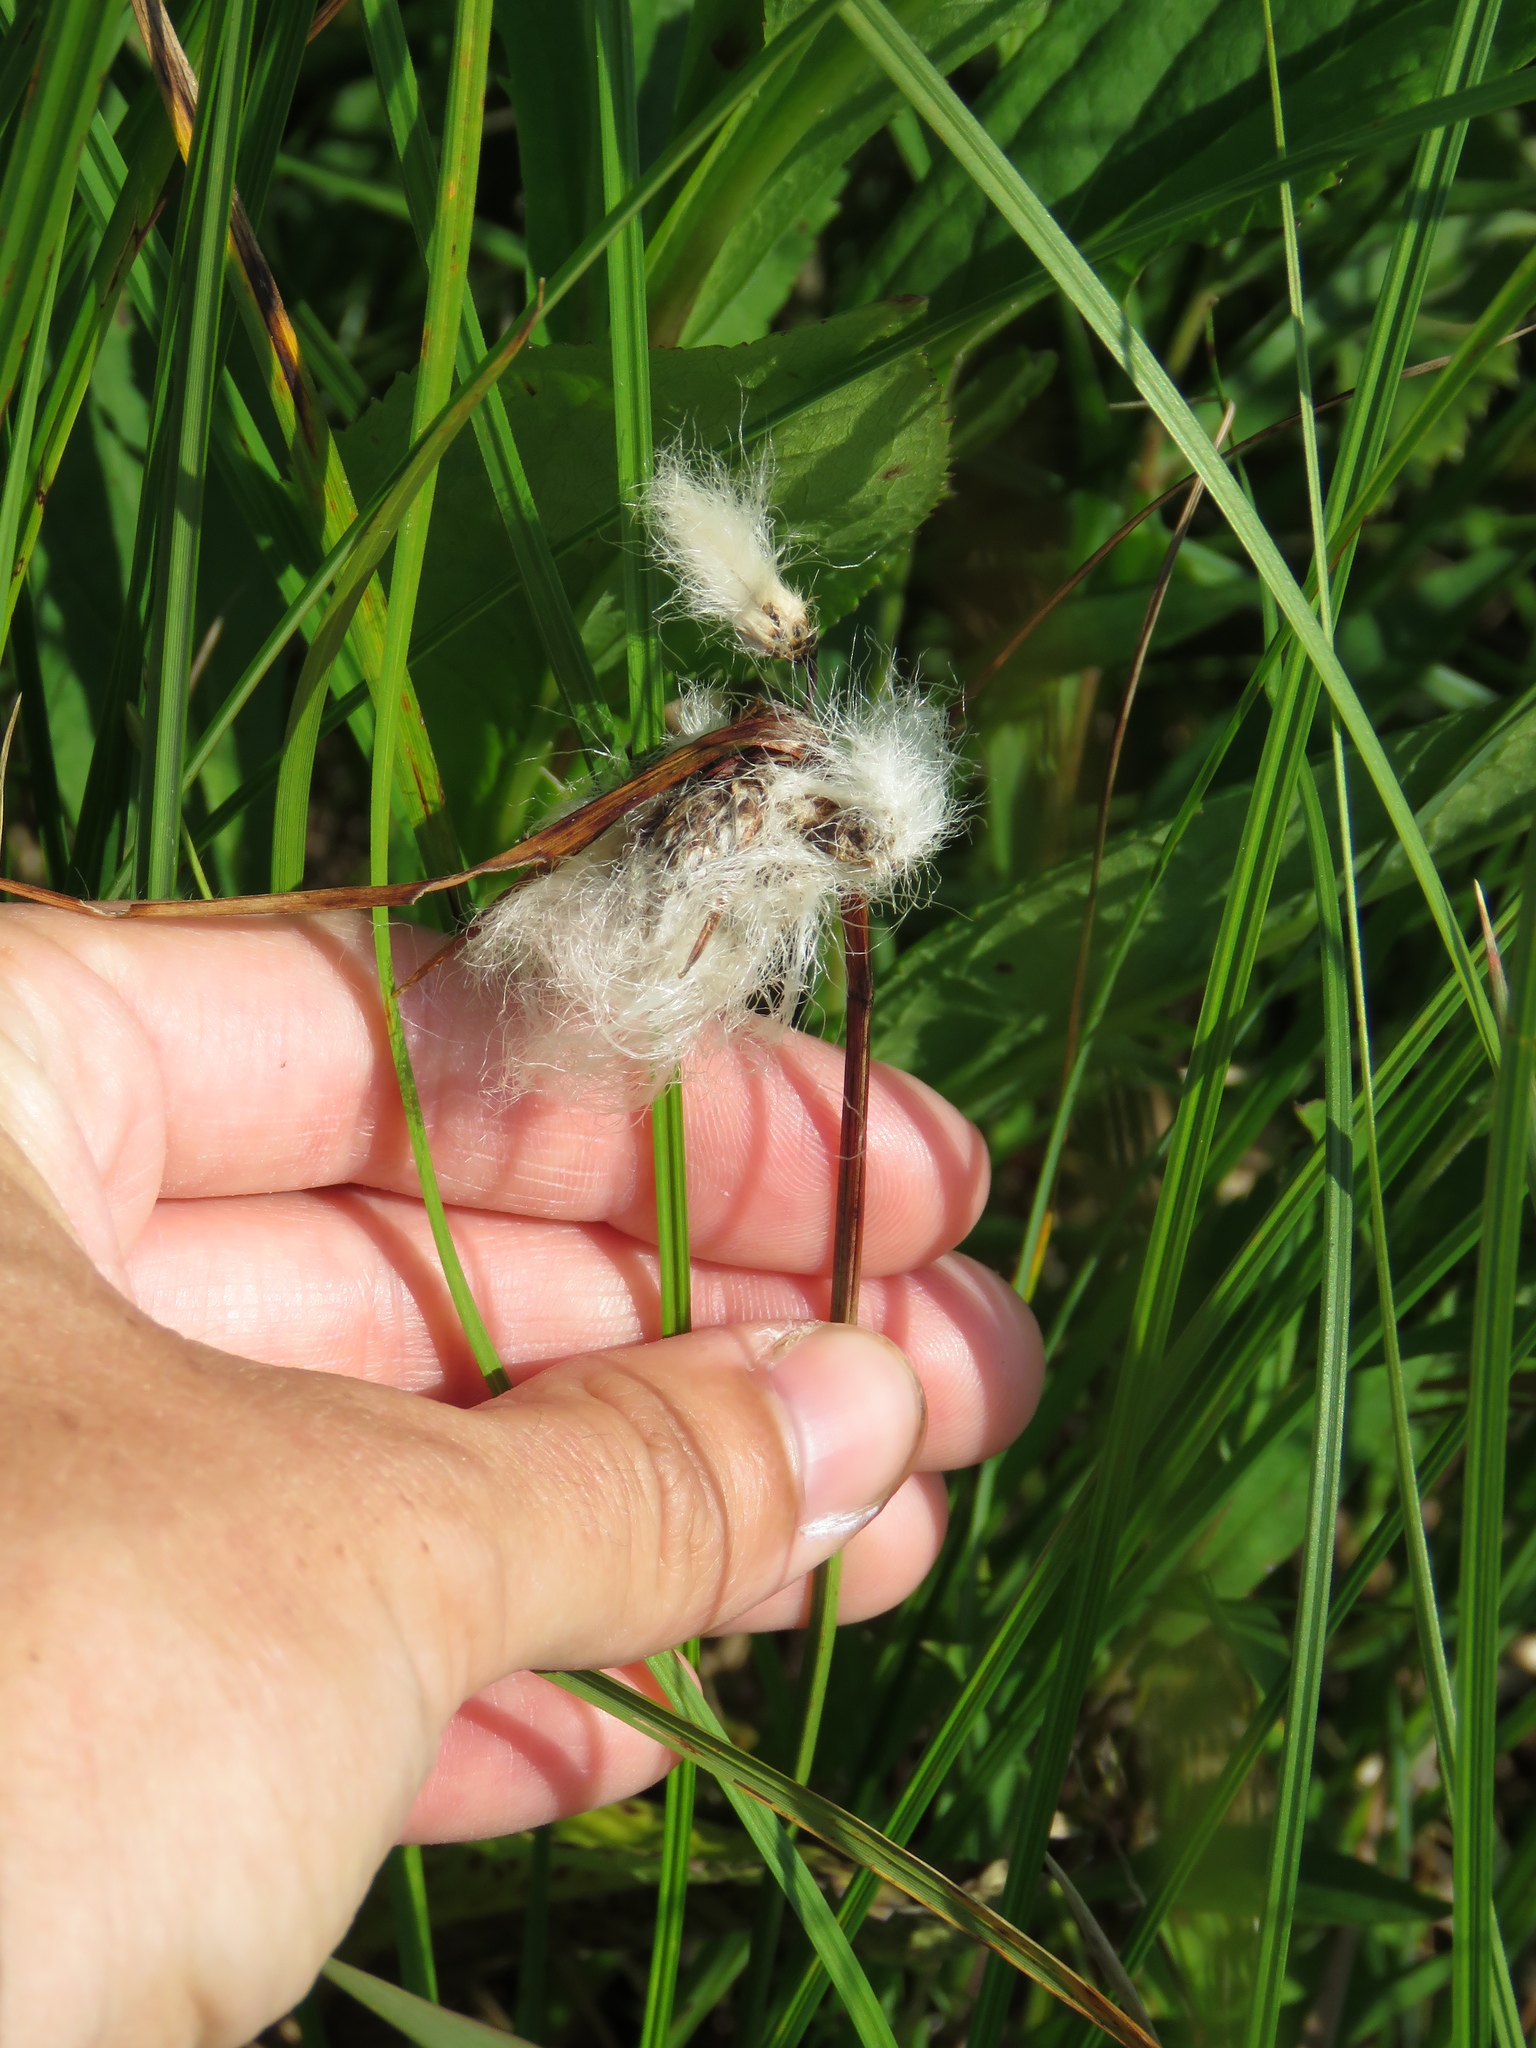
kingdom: Plantae
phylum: Tracheophyta
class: Liliopsida
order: Poales
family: Cyperaceae
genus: Eriophorum
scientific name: Eriophorum angustifolium
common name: Common cottongrass
